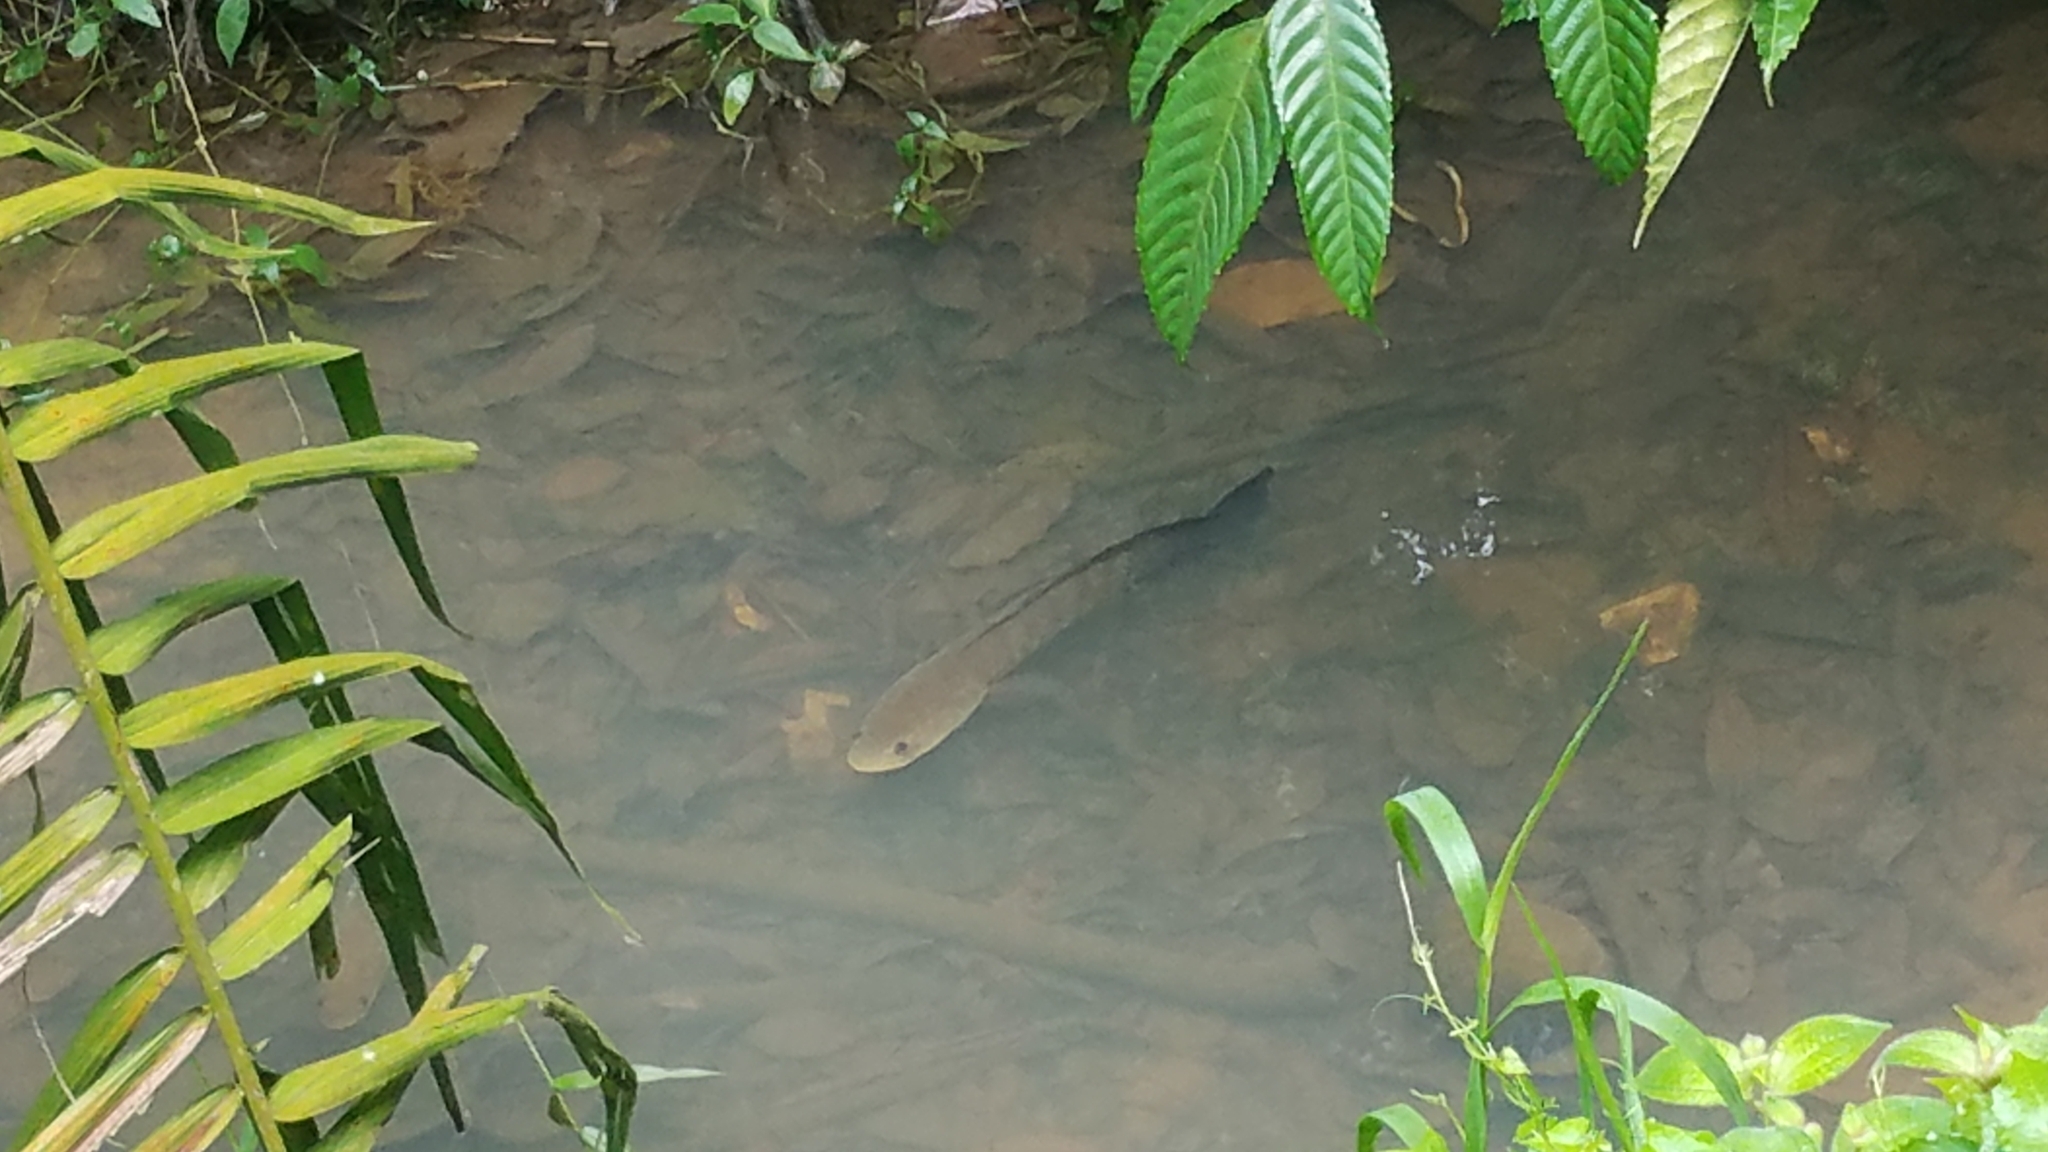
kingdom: Animalia
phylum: Chordata
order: Perciformes
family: Channidae
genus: Channa
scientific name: Channa striata
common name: Striped snakehead
